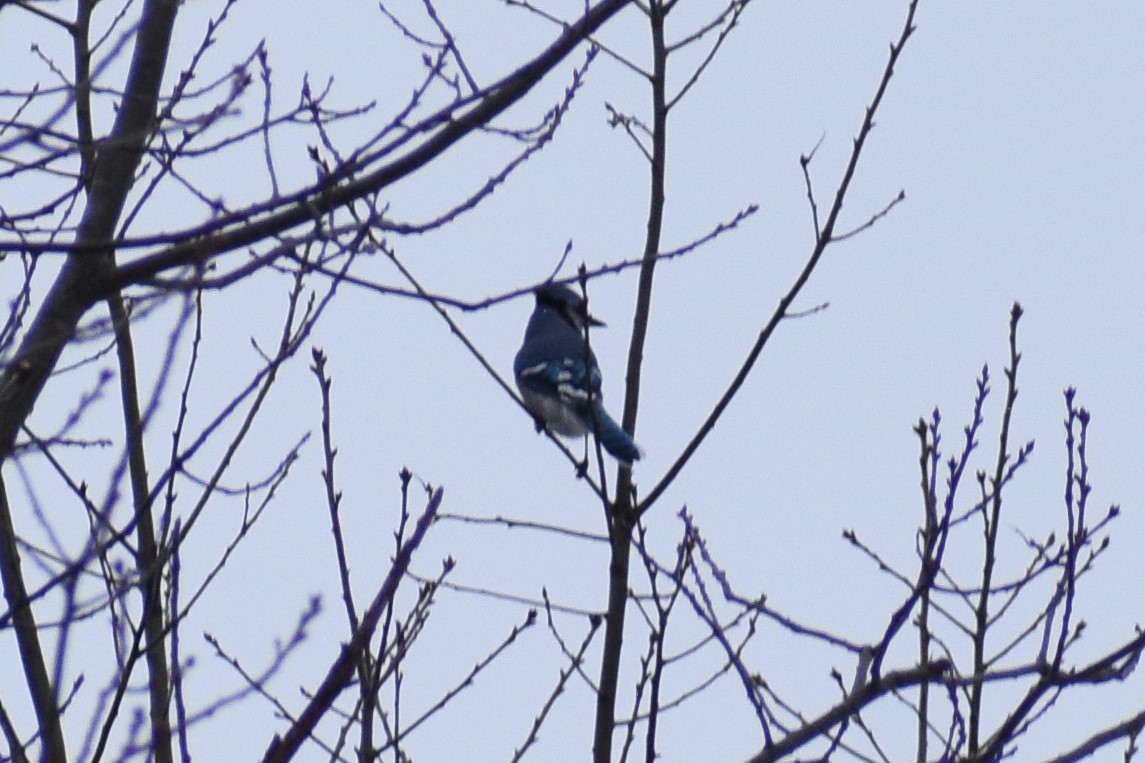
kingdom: Animalia
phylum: Chordata
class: Aves
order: Passeriformes
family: Corvidae
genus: Cyanocitta
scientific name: Cyanocitta cristata
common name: Blue jay
